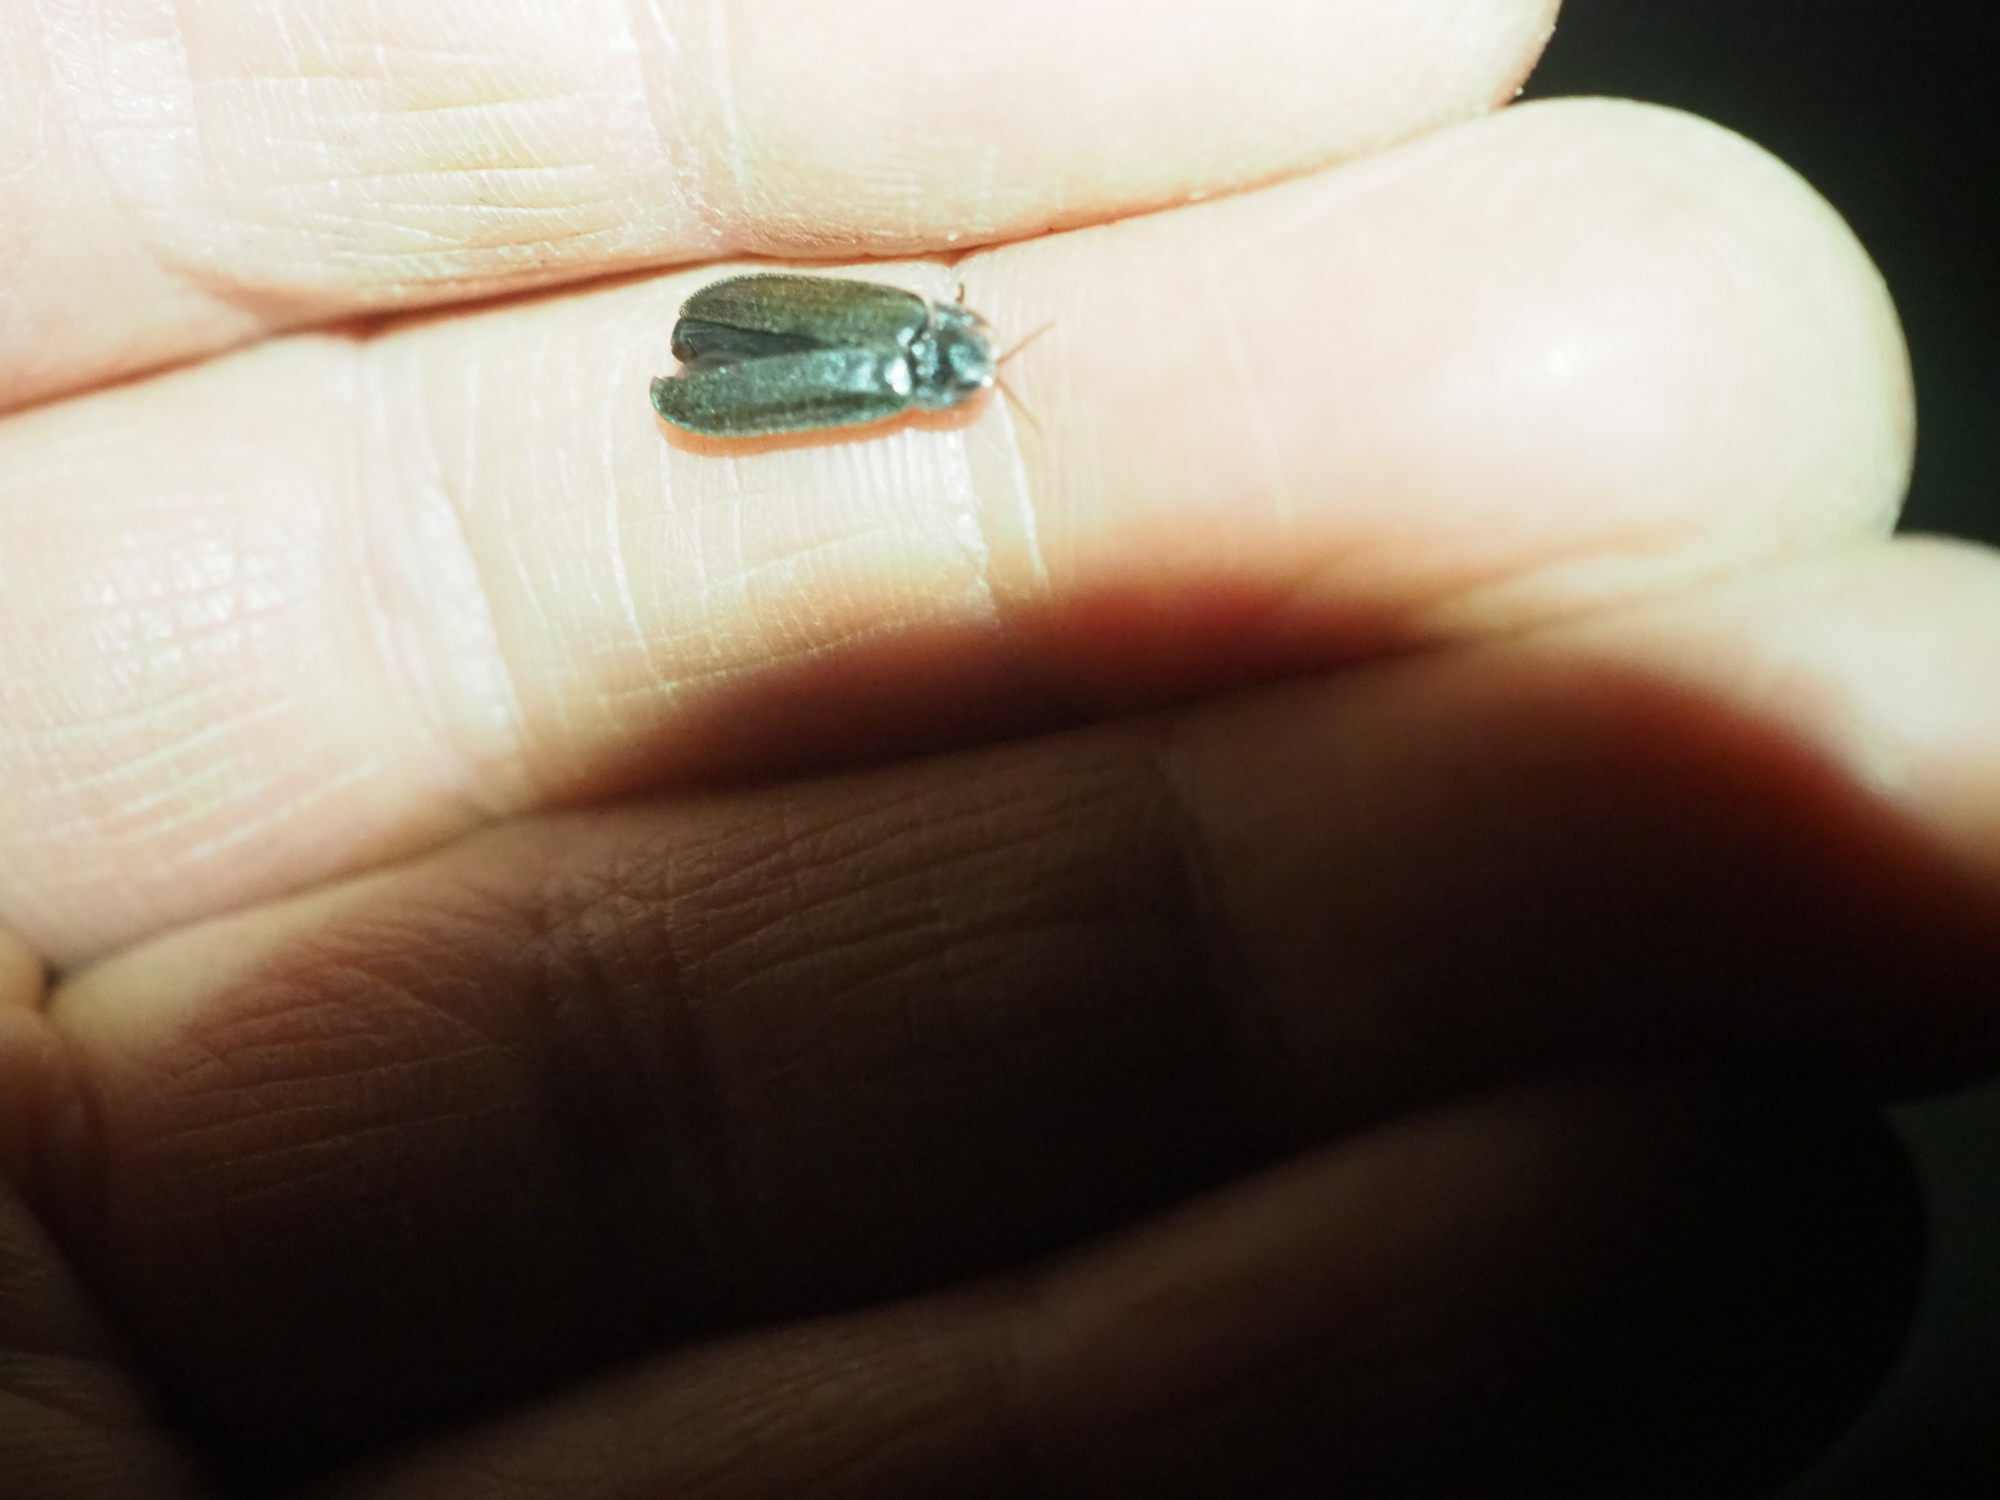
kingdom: Animalia
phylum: Arthropoda
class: Insecta
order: Coleoptera
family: Lampyridae
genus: Lamprohiza
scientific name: Lamprohiza splendidula
